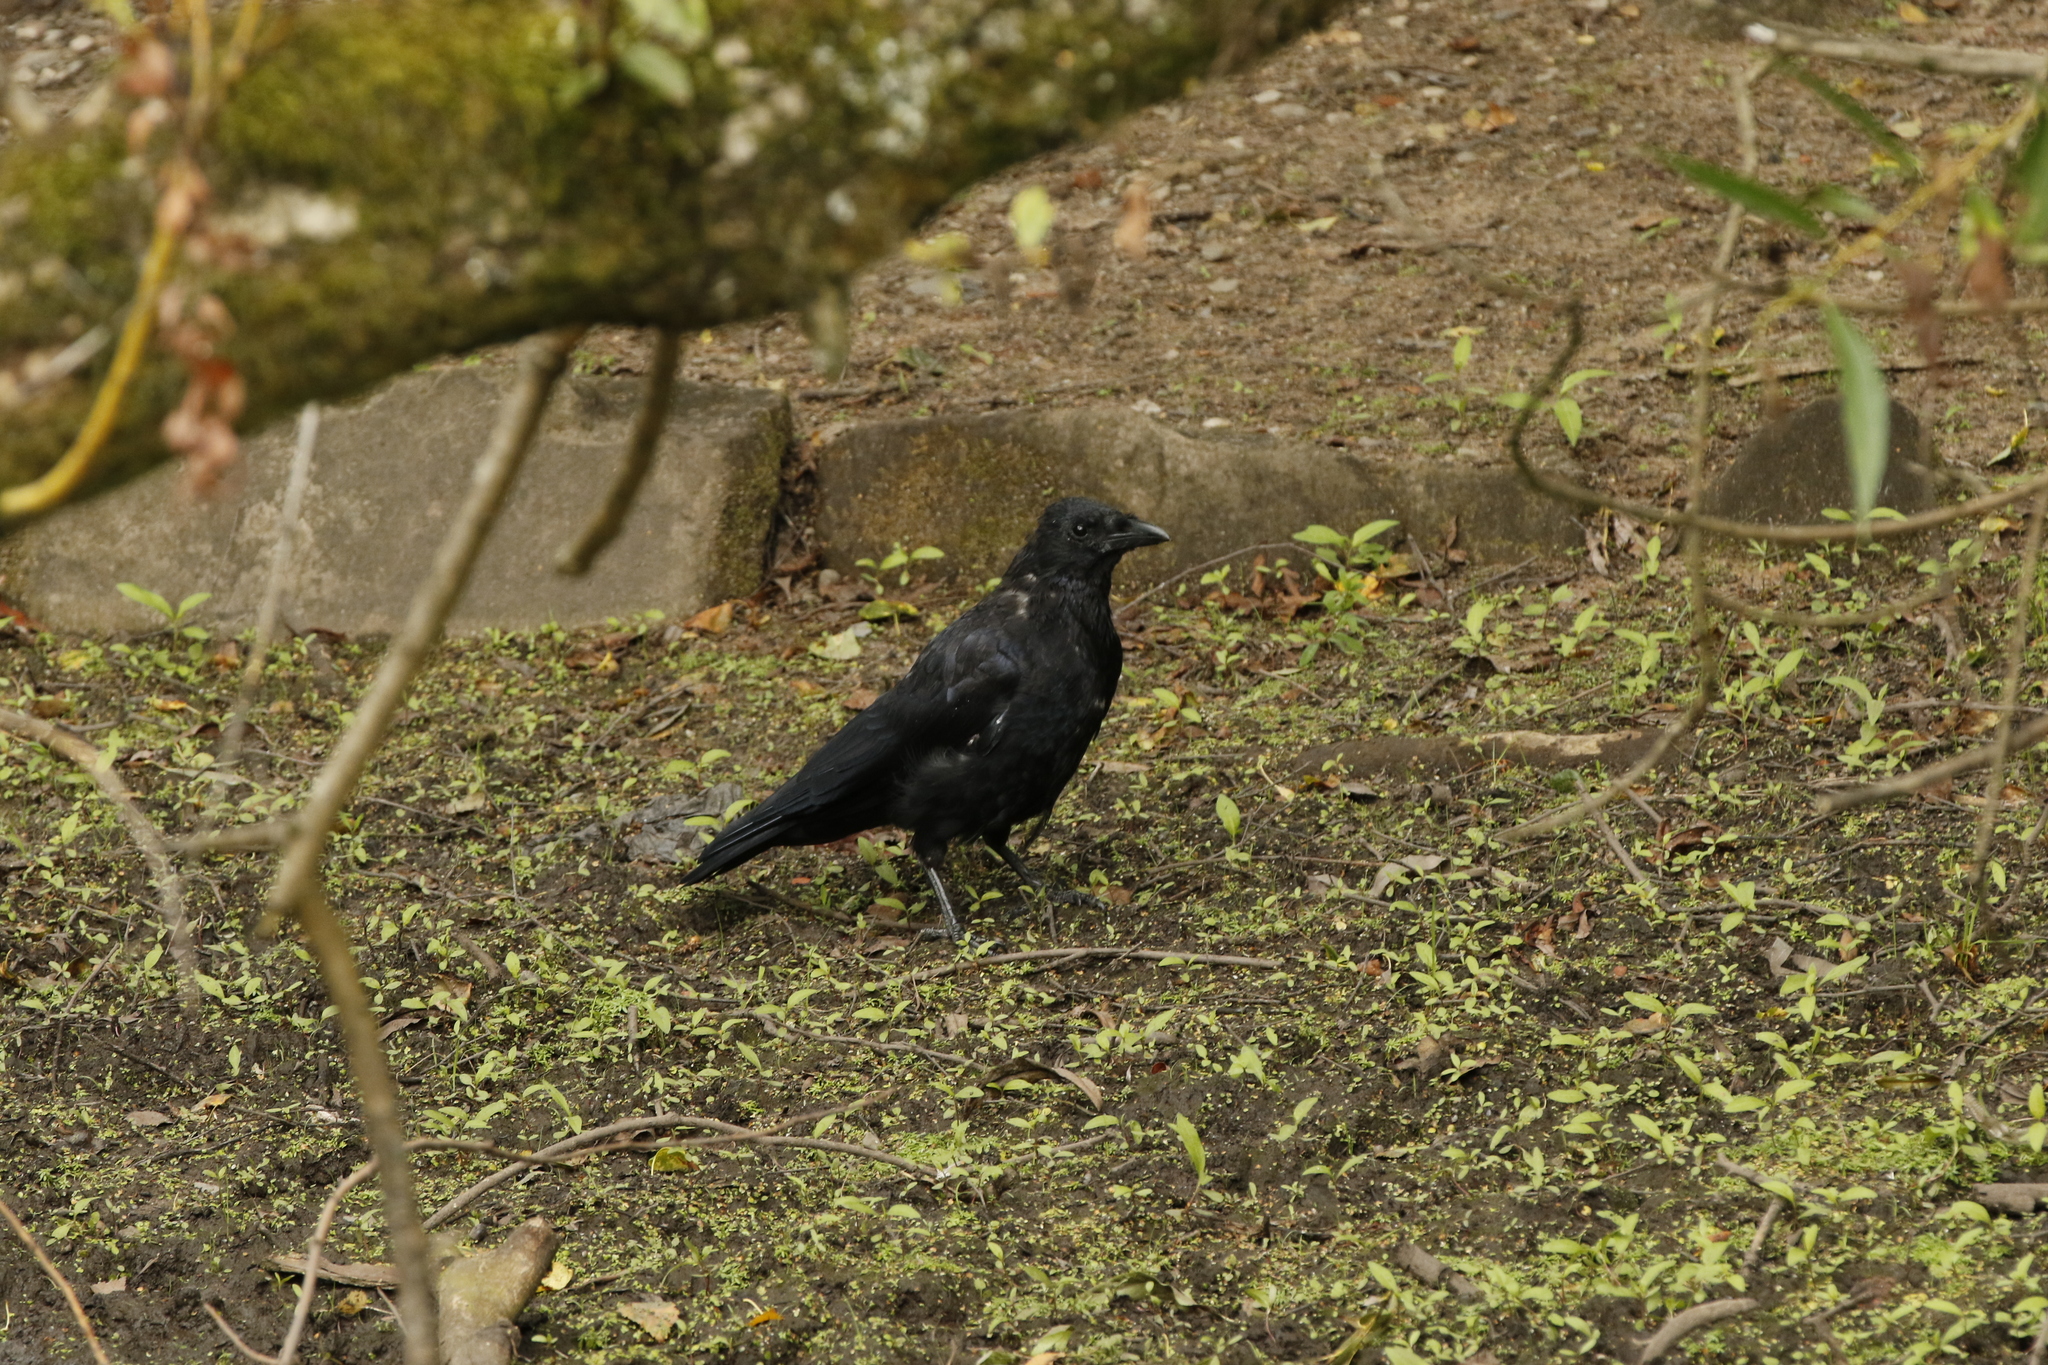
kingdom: Animalia
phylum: Chordata
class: Aves
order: Passeriformes
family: Corvidae
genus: Corvus
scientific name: Corvus corone
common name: Carrion crow
